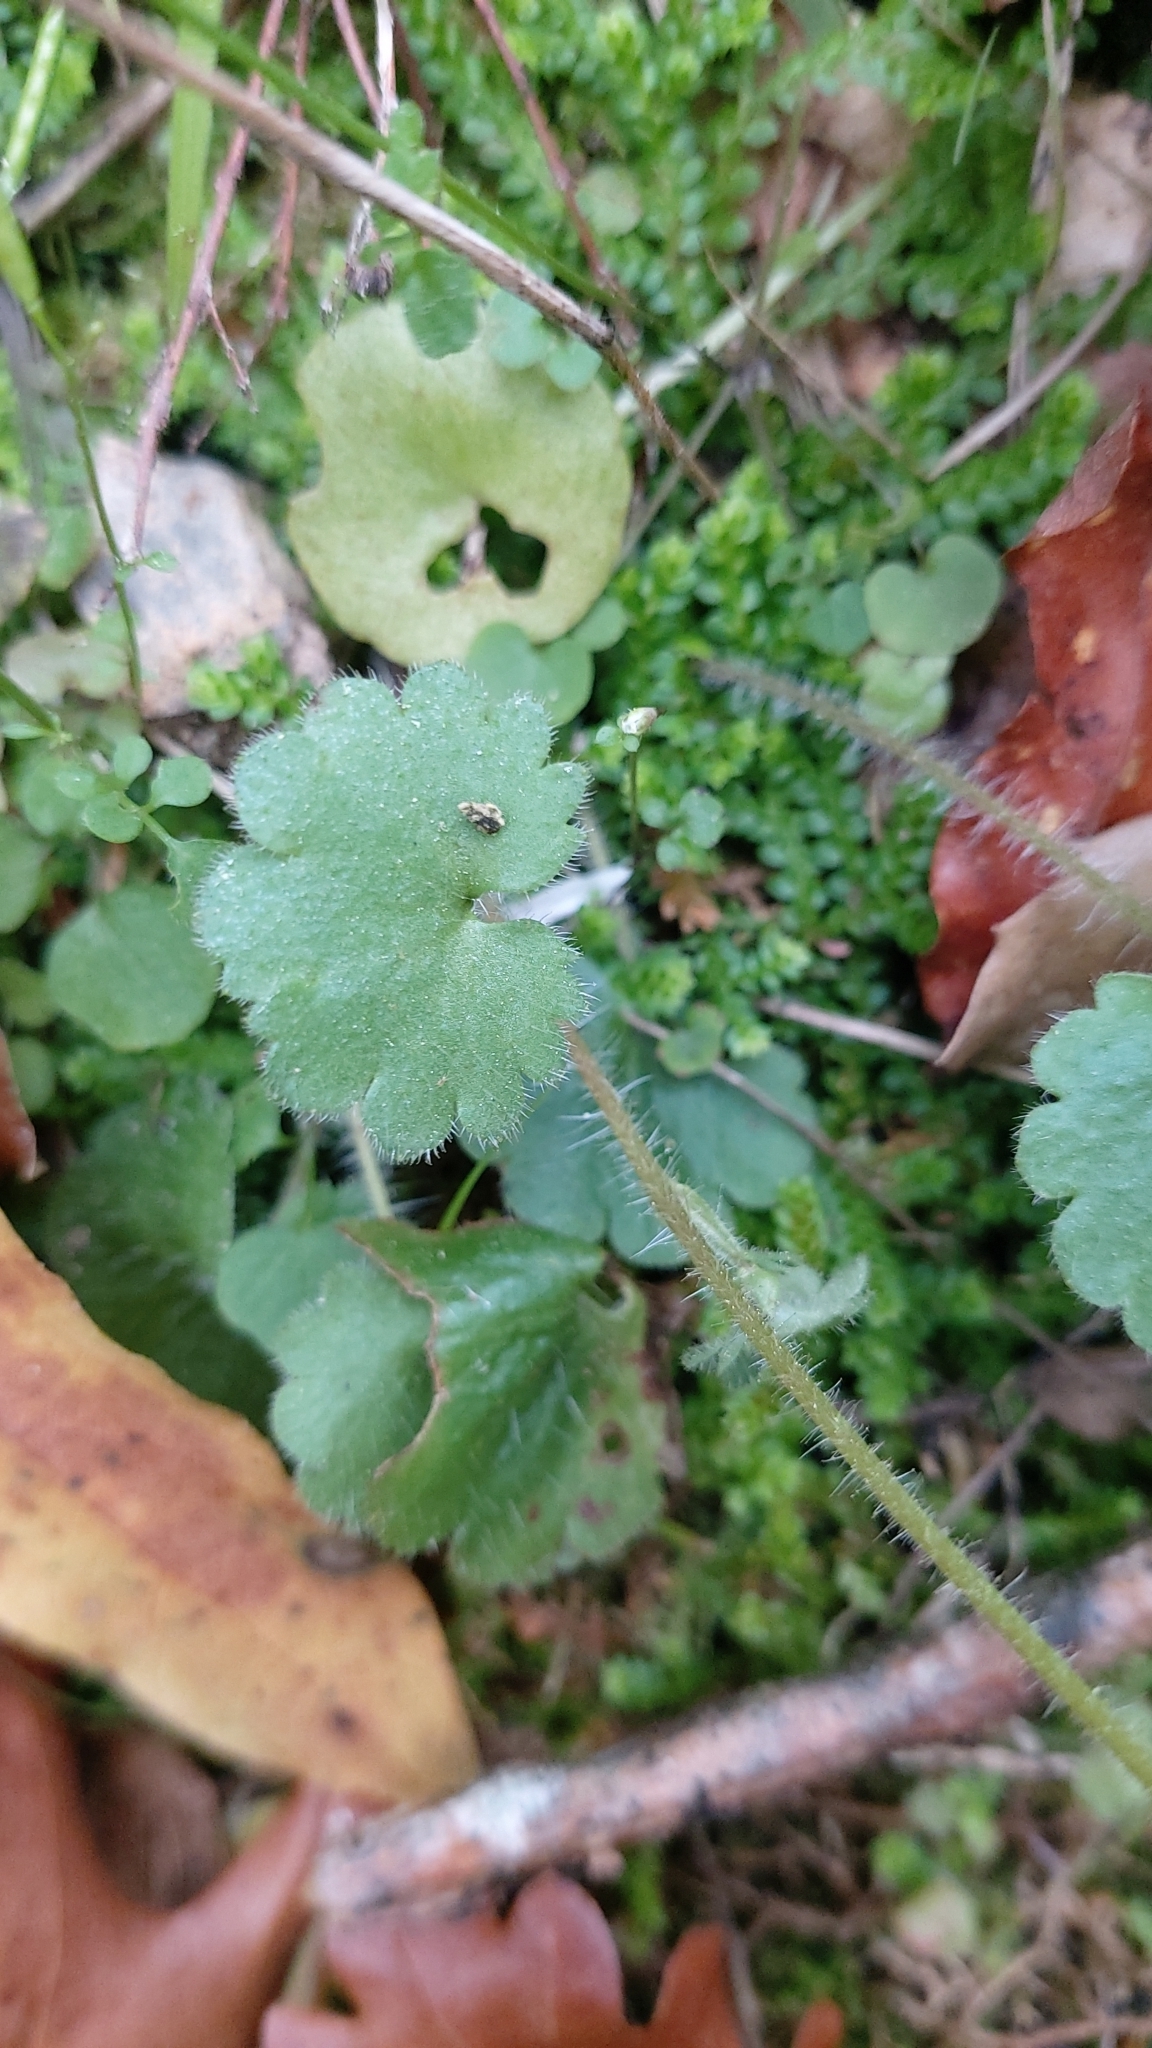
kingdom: Plantae
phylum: Tracheophyta
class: Magnoliopsida
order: Saxifragales
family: Saxifragaceae
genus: Saxifraga
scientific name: Saxifraga granulata
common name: Meadow saxifrage
